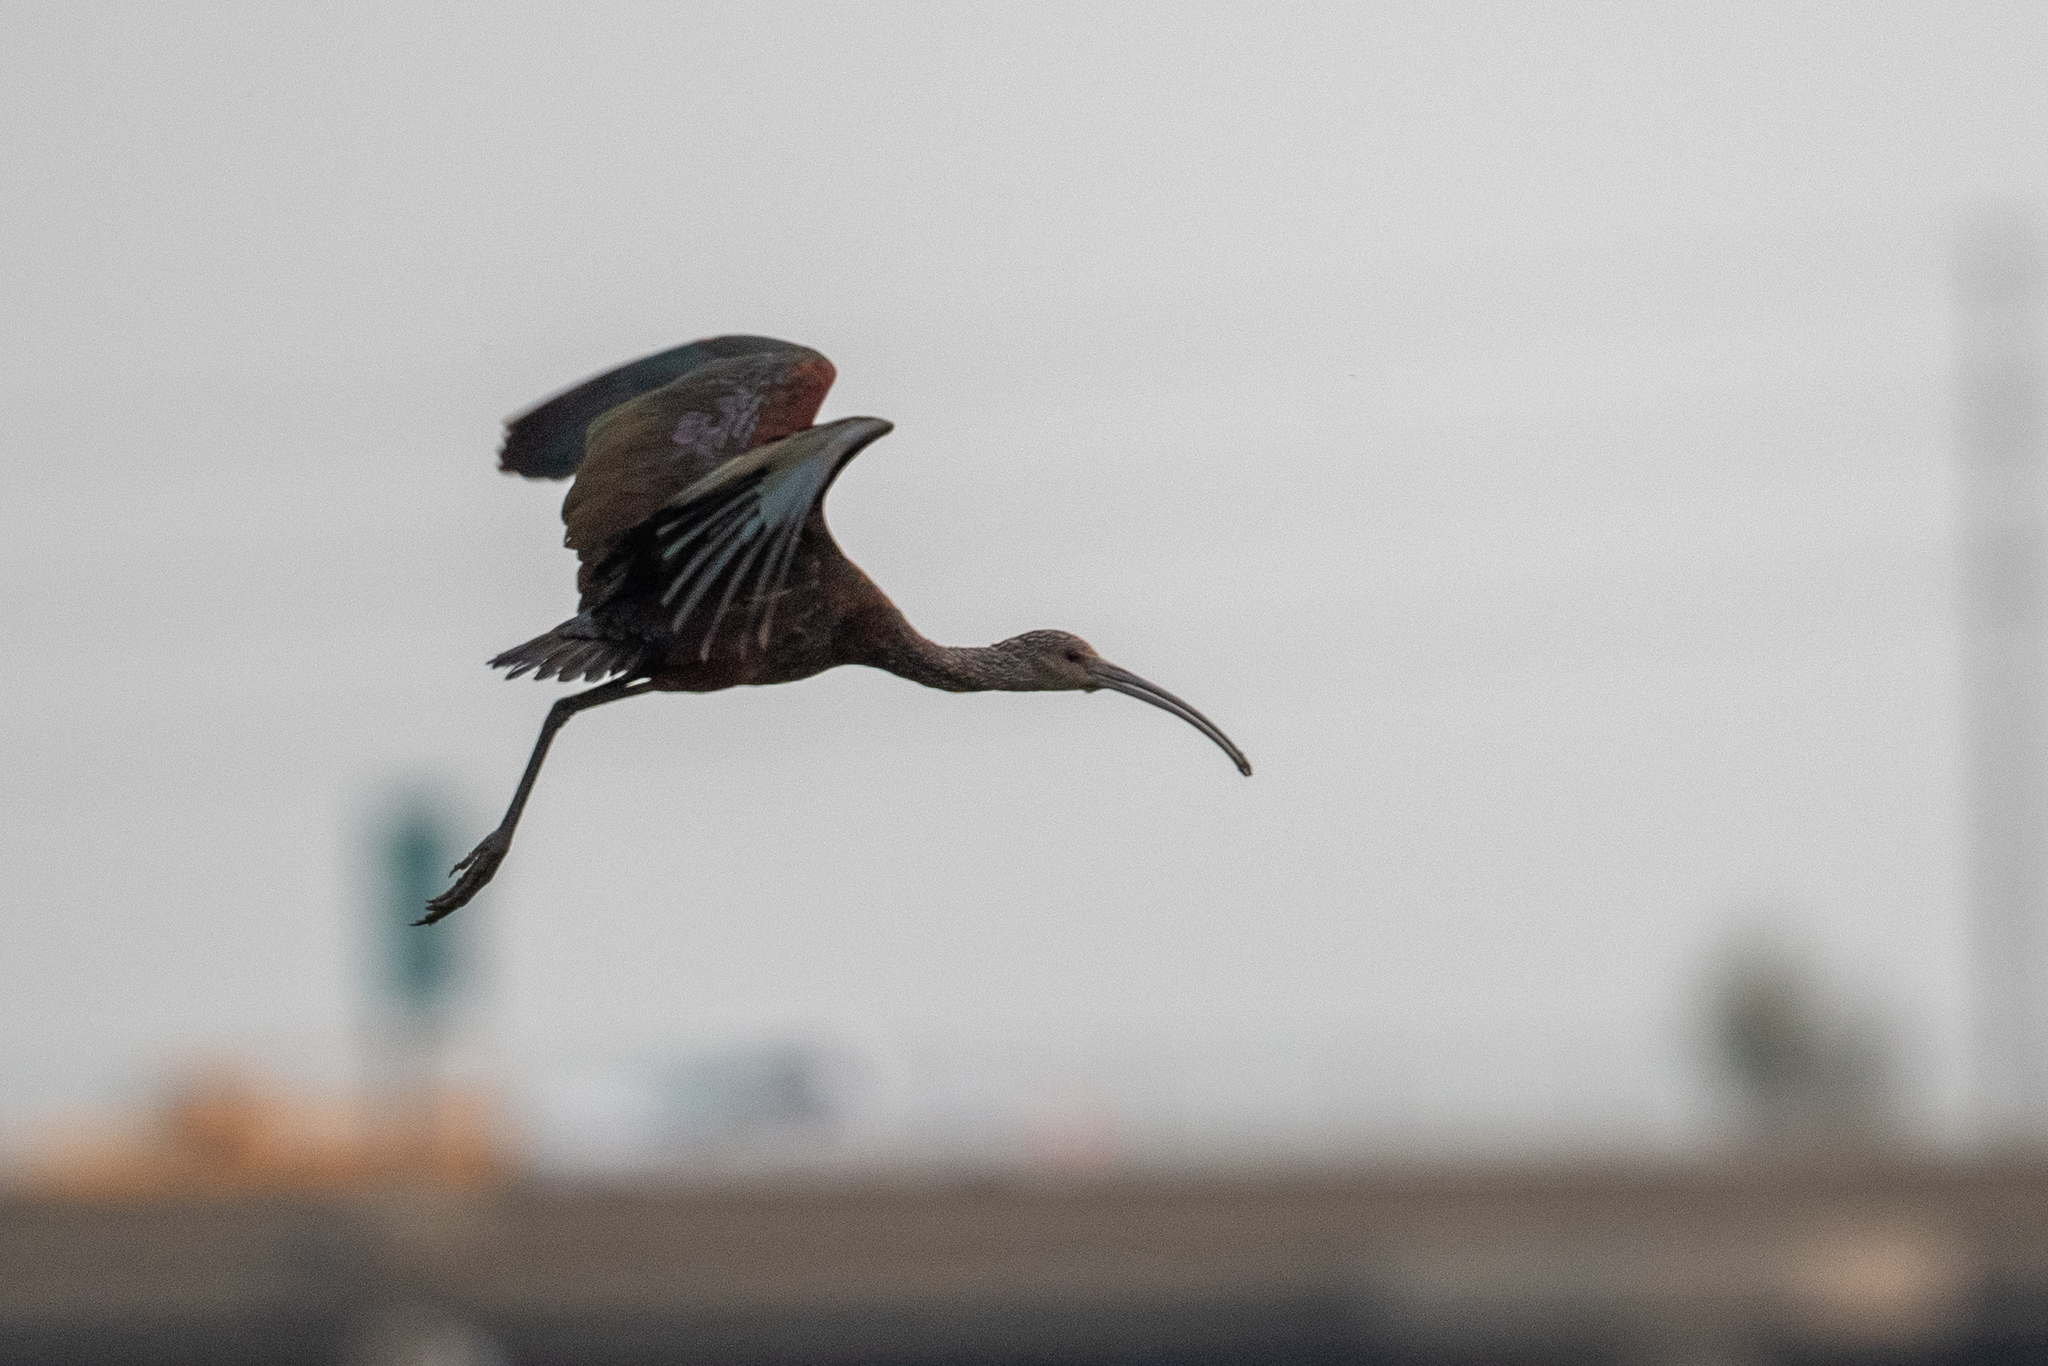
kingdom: Animalia
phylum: Chordata
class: Aves
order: Pelecaniformes
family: Threskiornithidae
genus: Plegadis
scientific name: Plegadis chihi
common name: White-faced ibis
